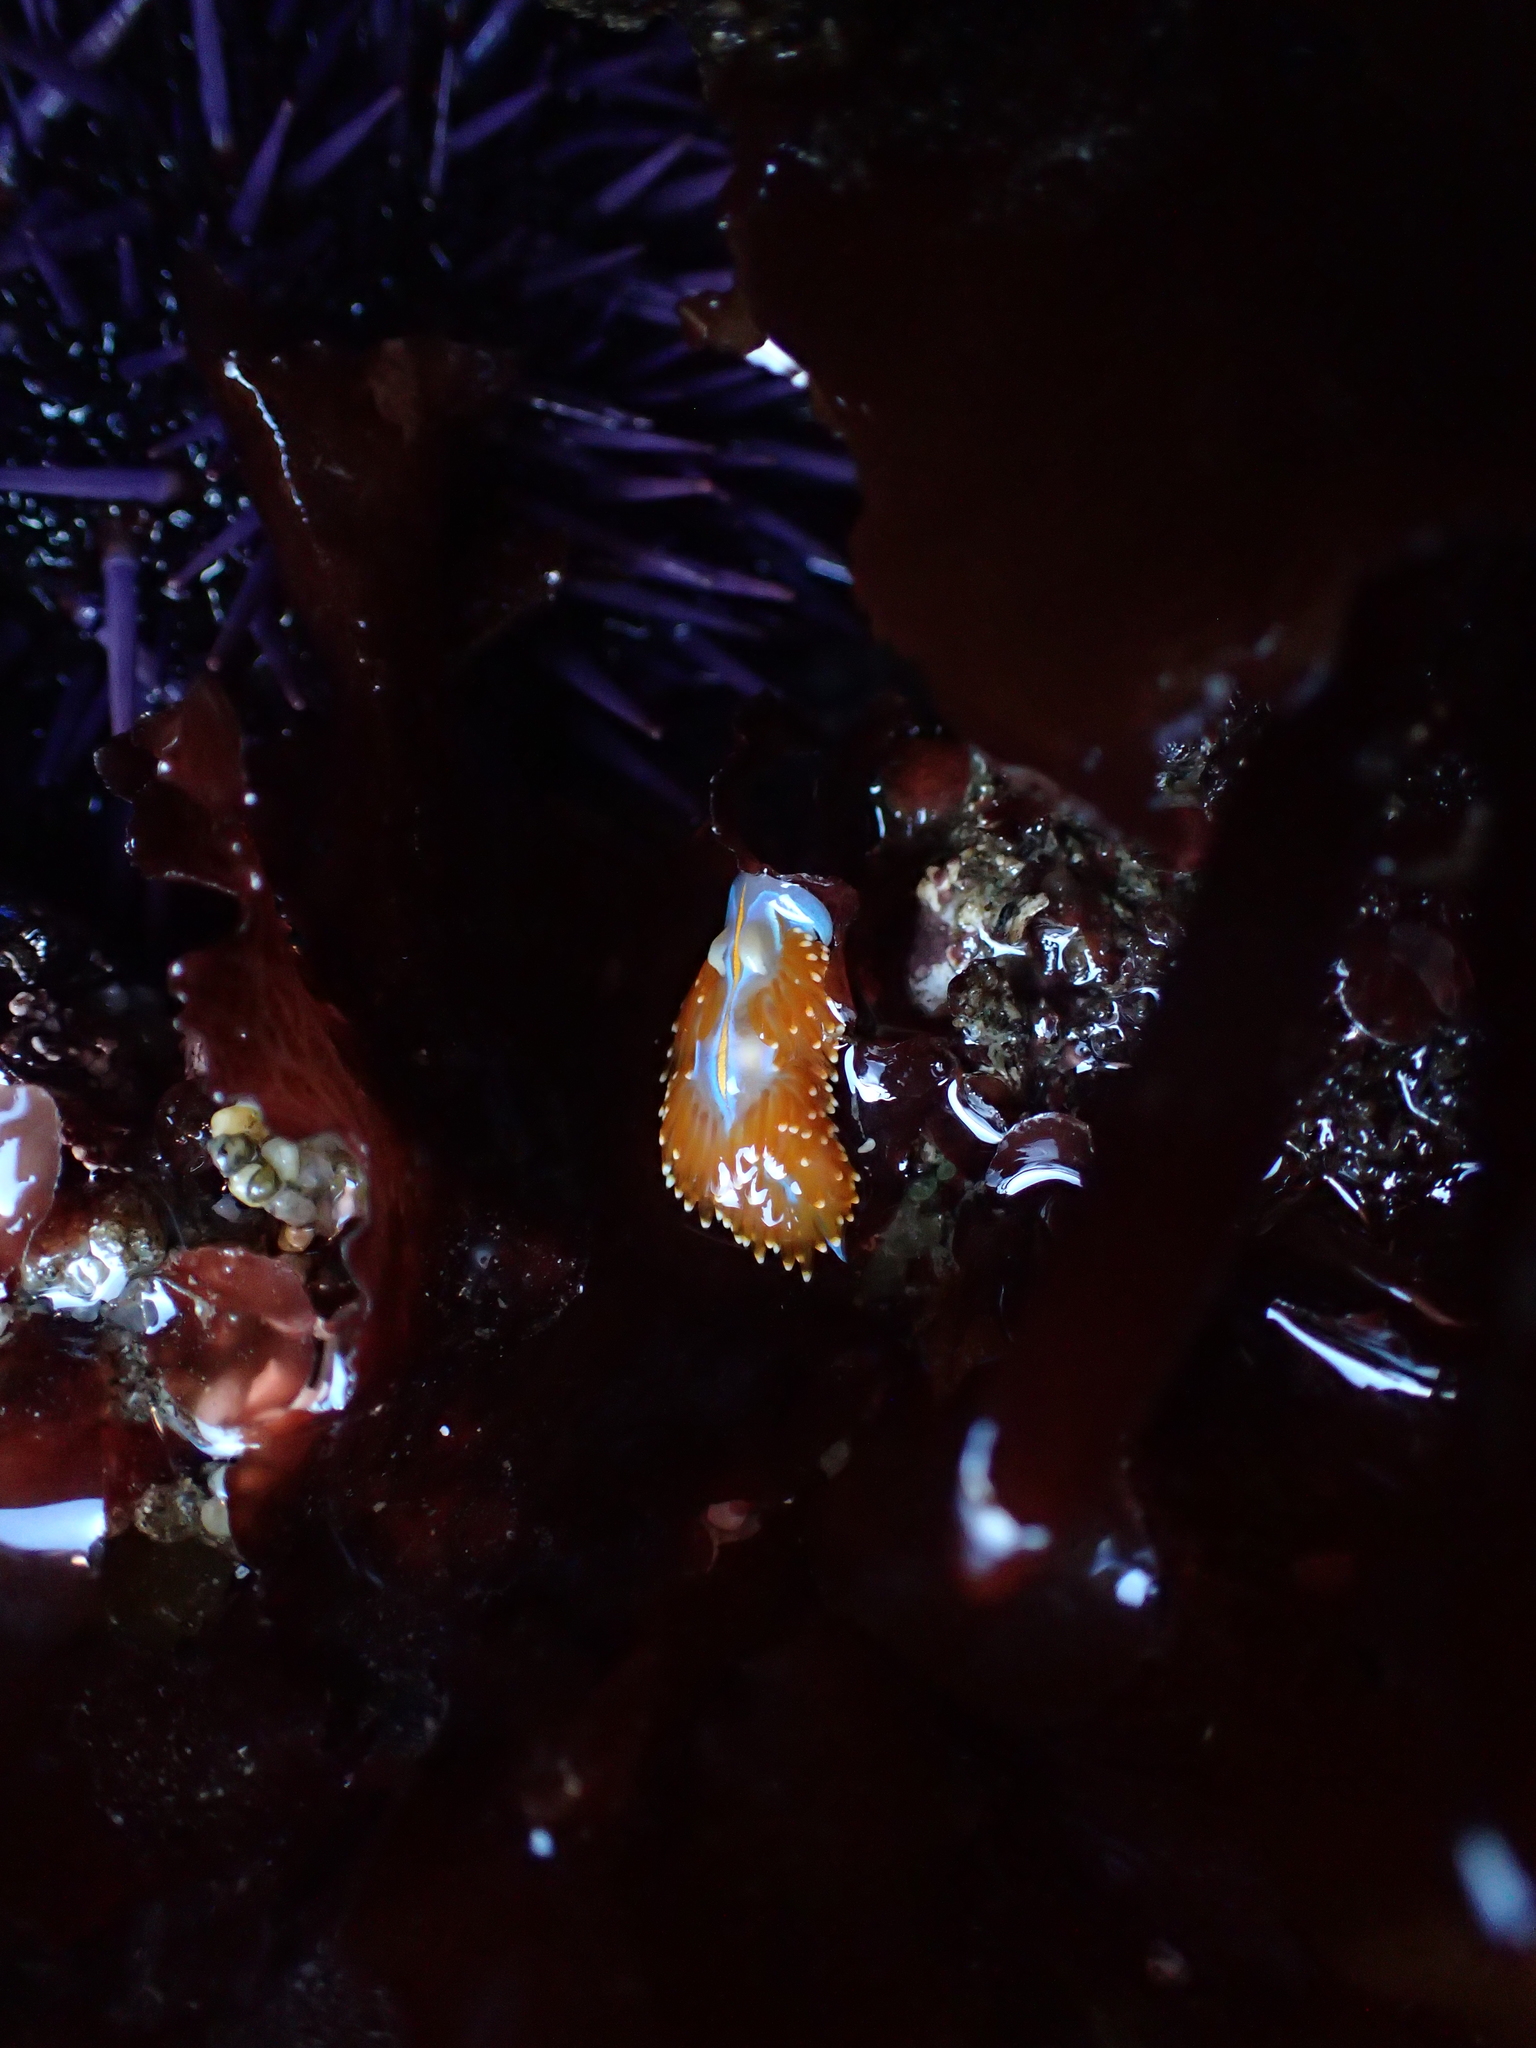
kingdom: Animalia
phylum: Mollusca
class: Gastropoda
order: Nudibranchia
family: Myrrhinidae
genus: Hermissenda
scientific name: Hermissenda opalescens
